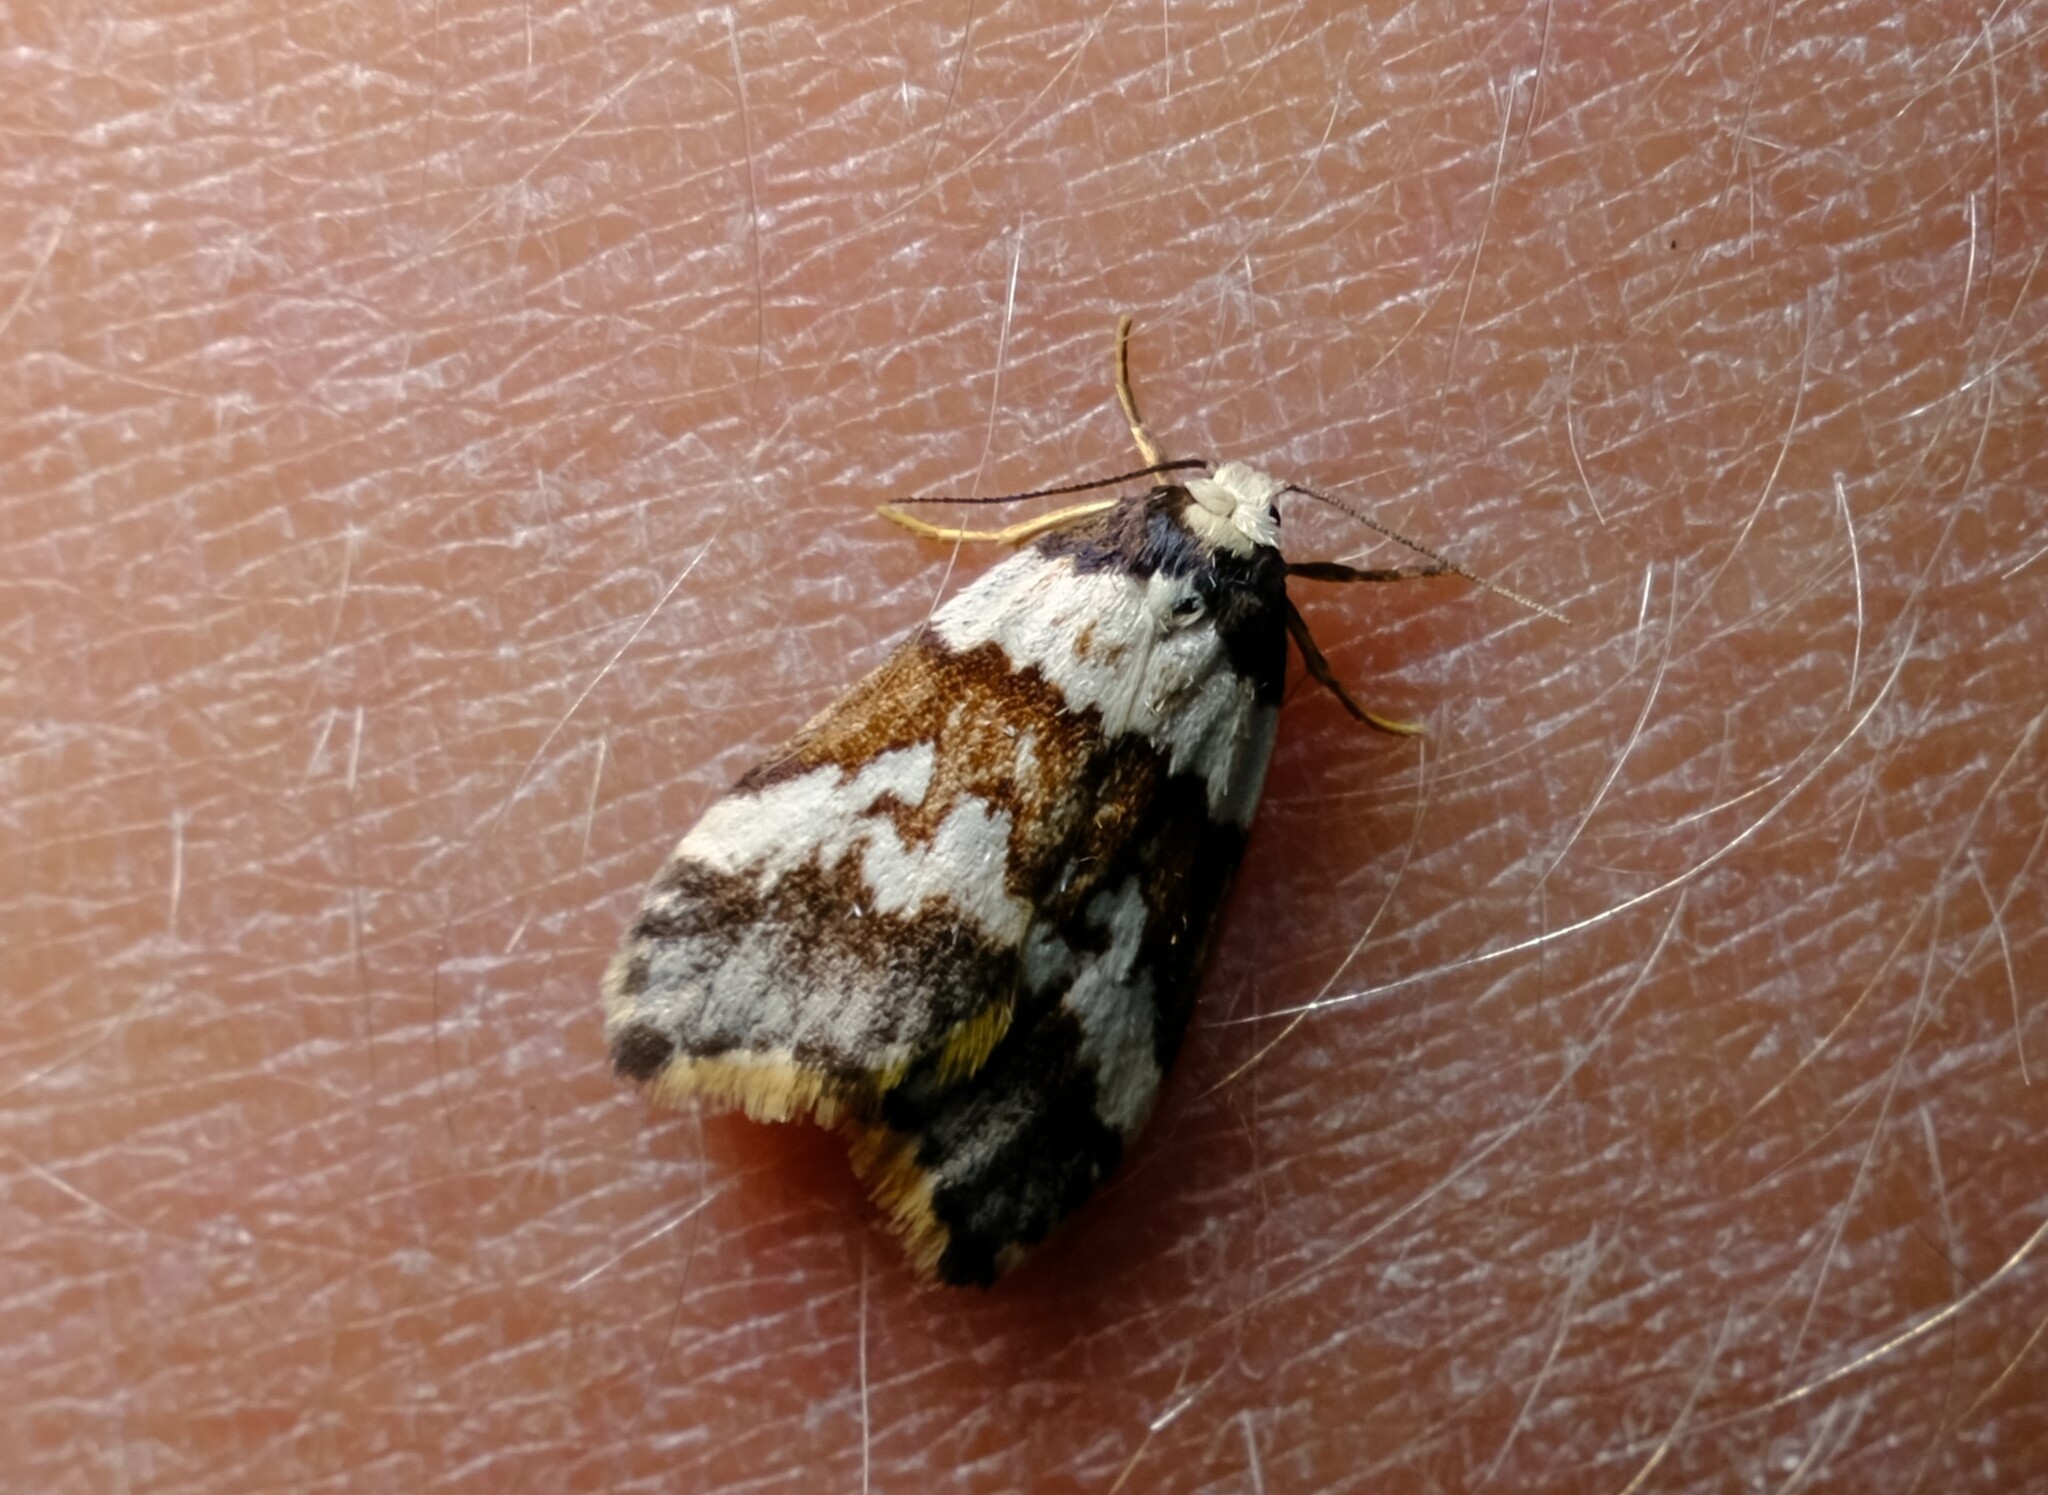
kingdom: Animalia
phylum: Arthropoda
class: Insecta
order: Lepidoptera
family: Erebidae
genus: Halone
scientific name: Halone sejuncta
